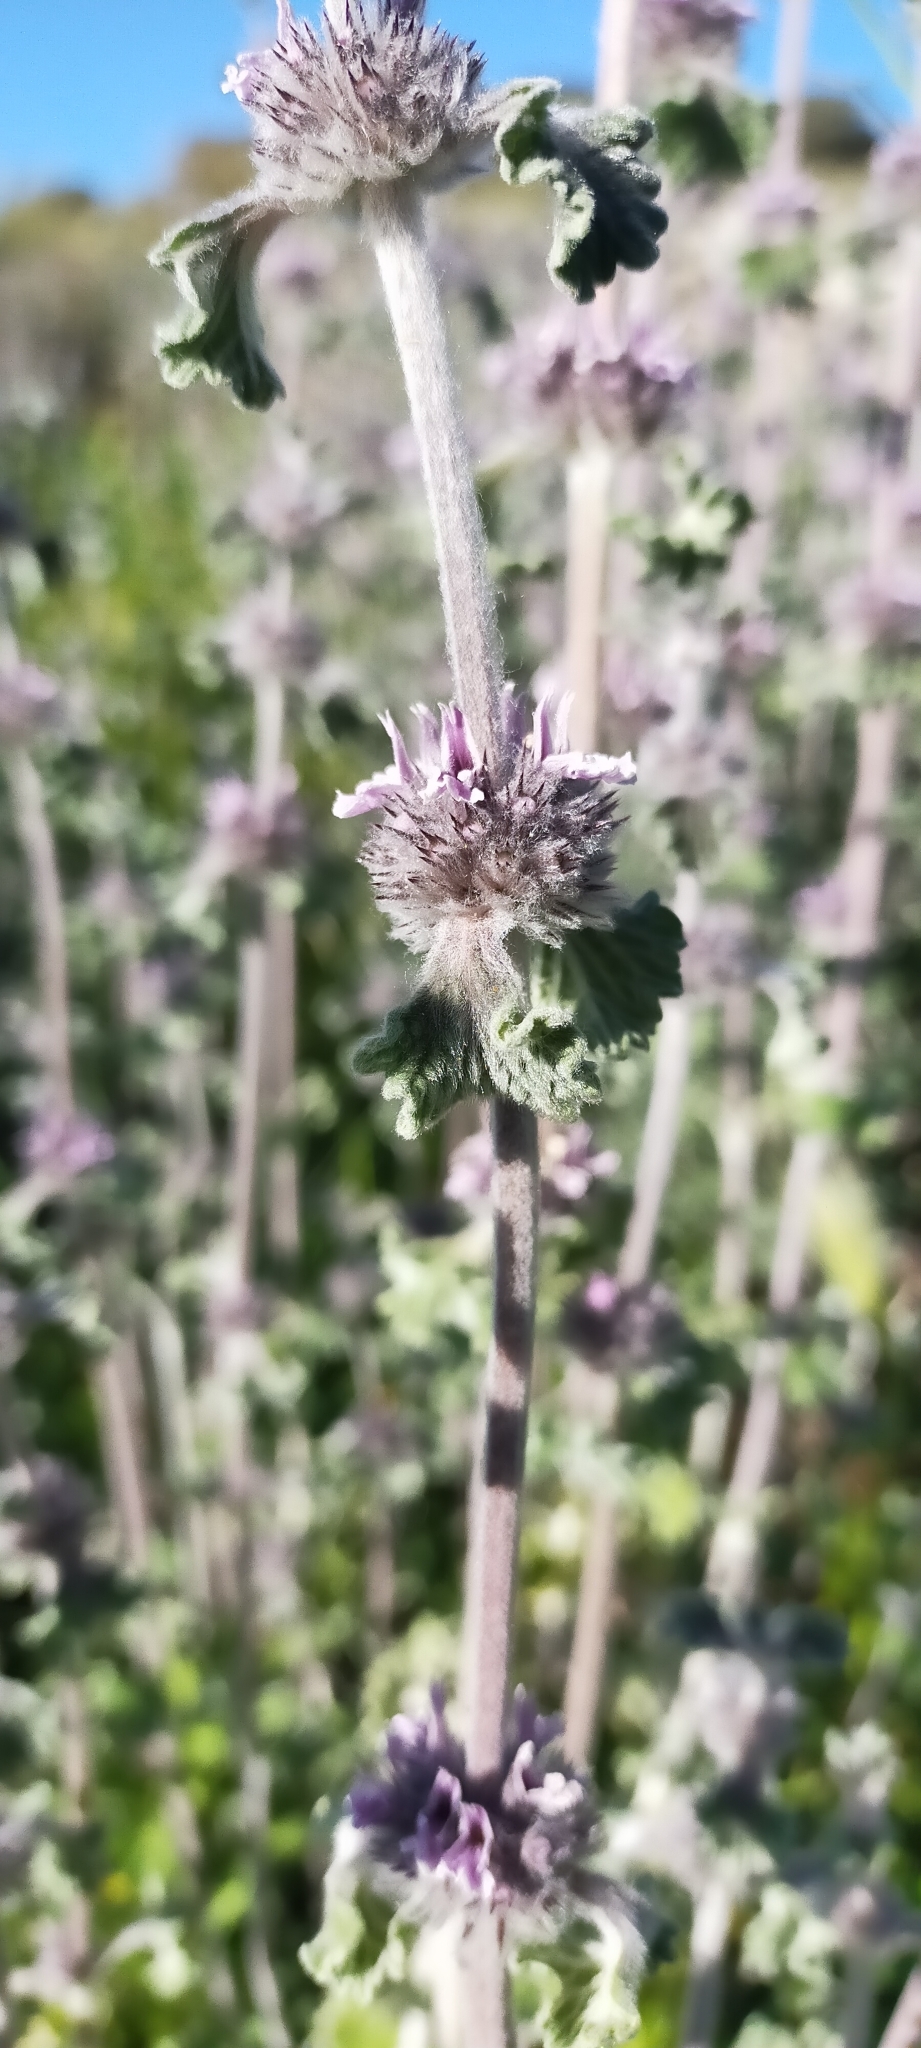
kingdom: Plantae
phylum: Tracheophyta
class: Magnoliopsida
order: Lamiales
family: Lamiaceae
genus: Marrubium
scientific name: Marrubium supinum
